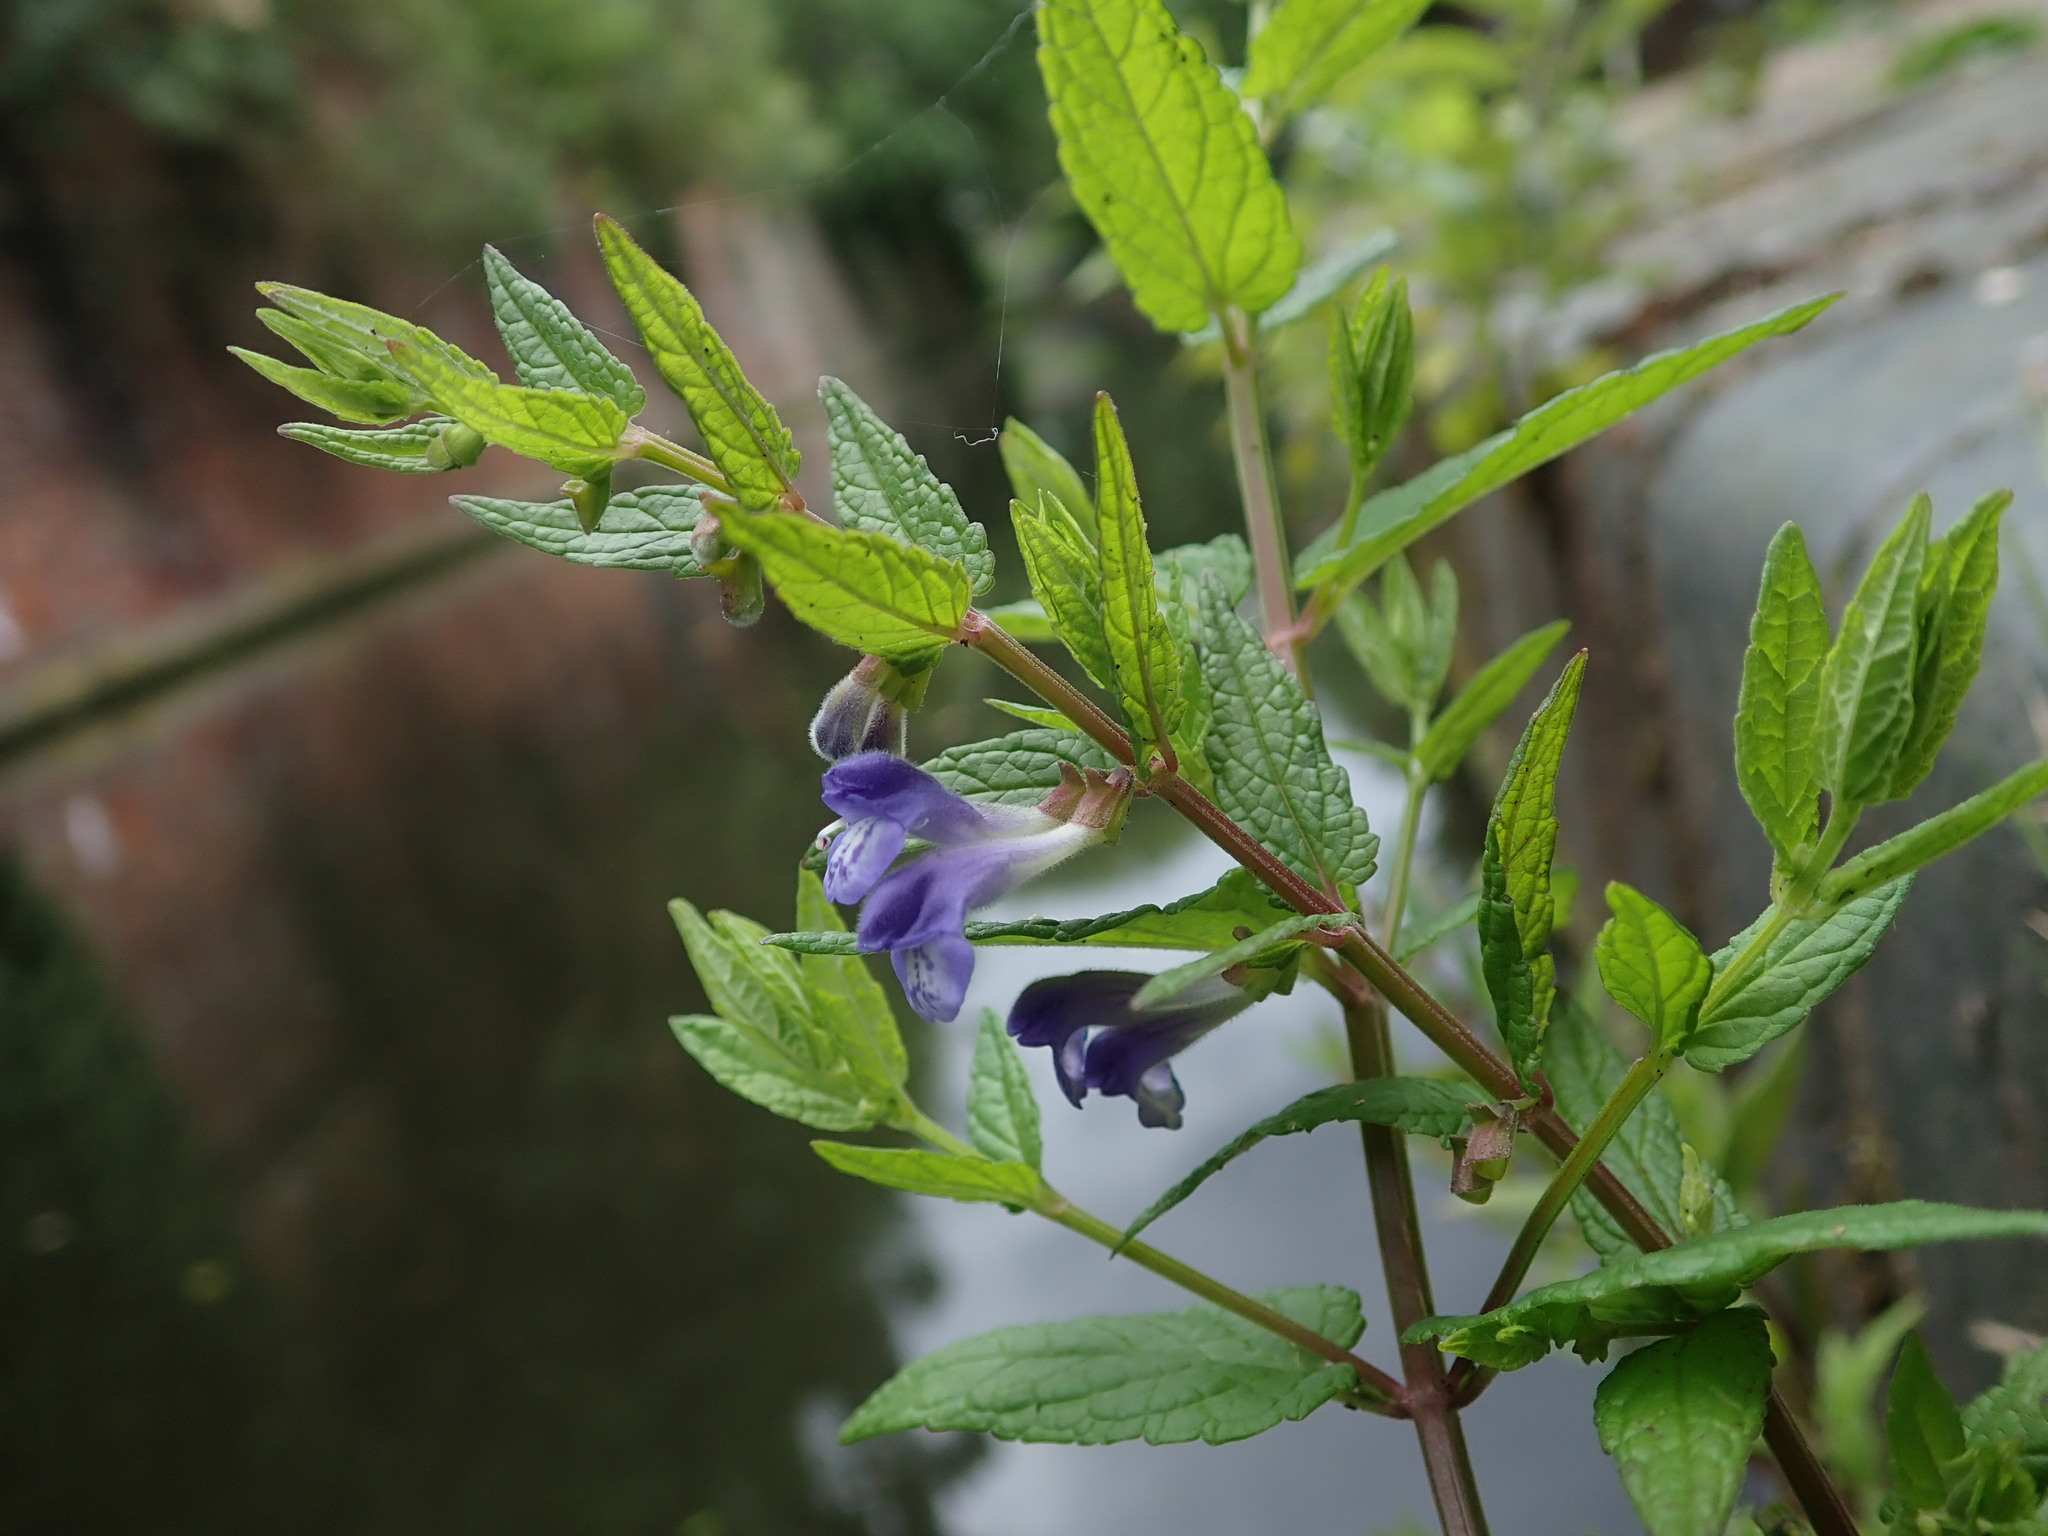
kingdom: Plantae
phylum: Tracheophyta
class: Magnoliopsida
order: Lamiales
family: Lamiaceae
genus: Scutellaria
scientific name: Scutellaria galericulata
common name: Skullcap
